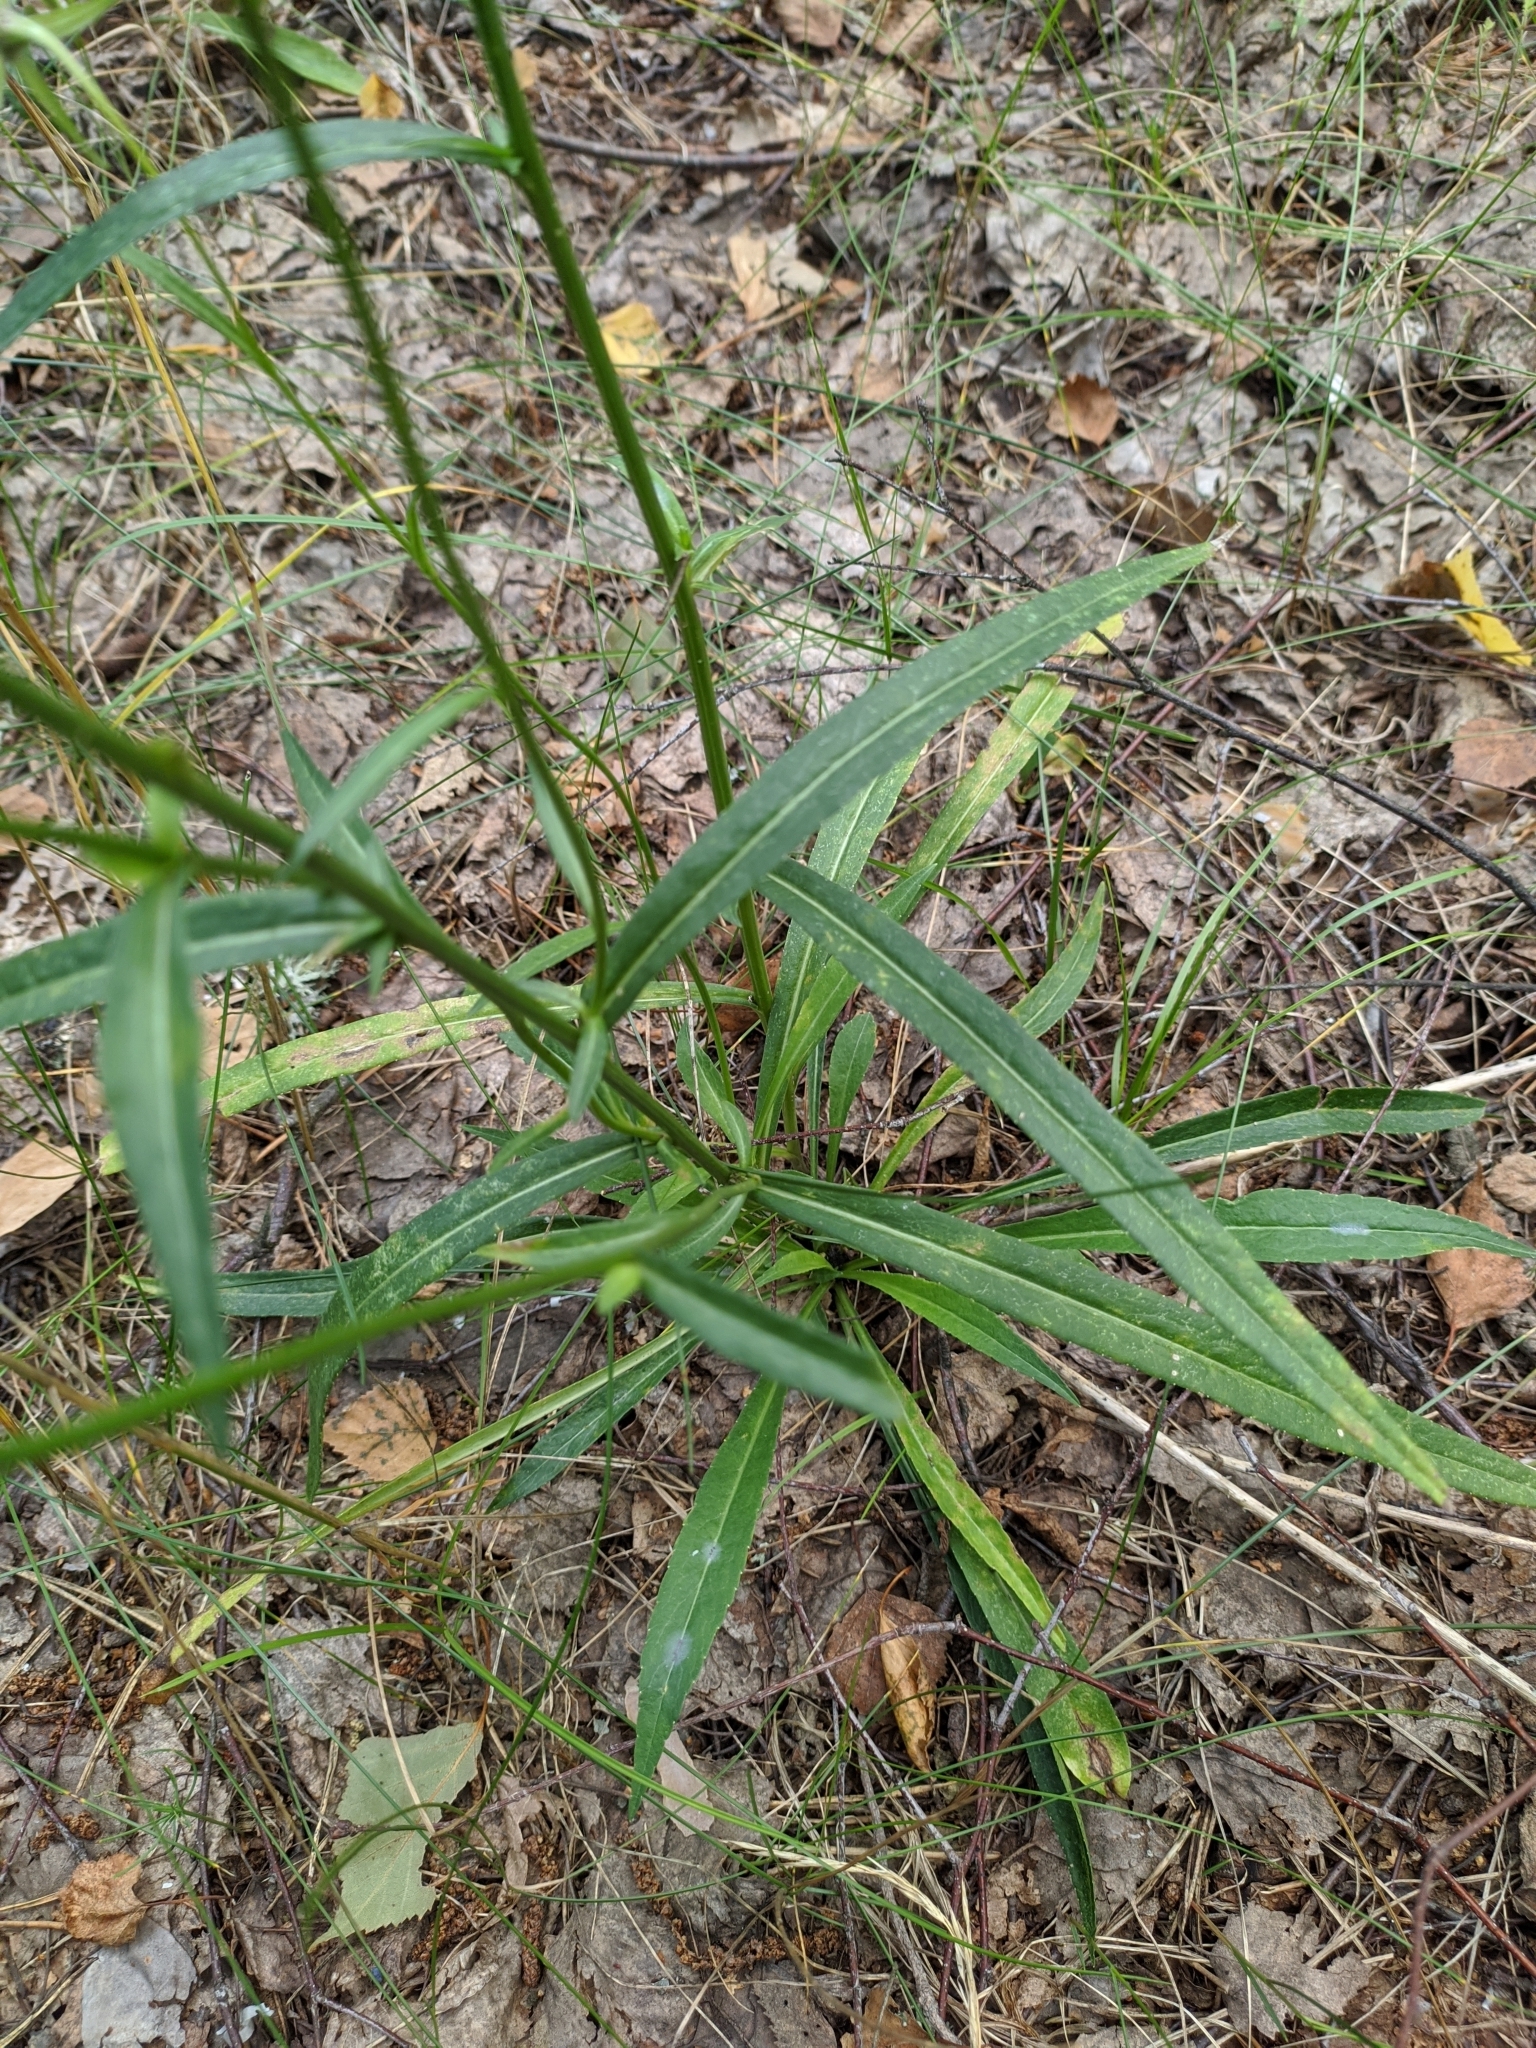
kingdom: Plantae
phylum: Tracheophyta
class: Magnoliopsida
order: Asterales
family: Campanulaceae
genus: Campanula
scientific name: Campanula persicifolia
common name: Peach-leaved bellflower
